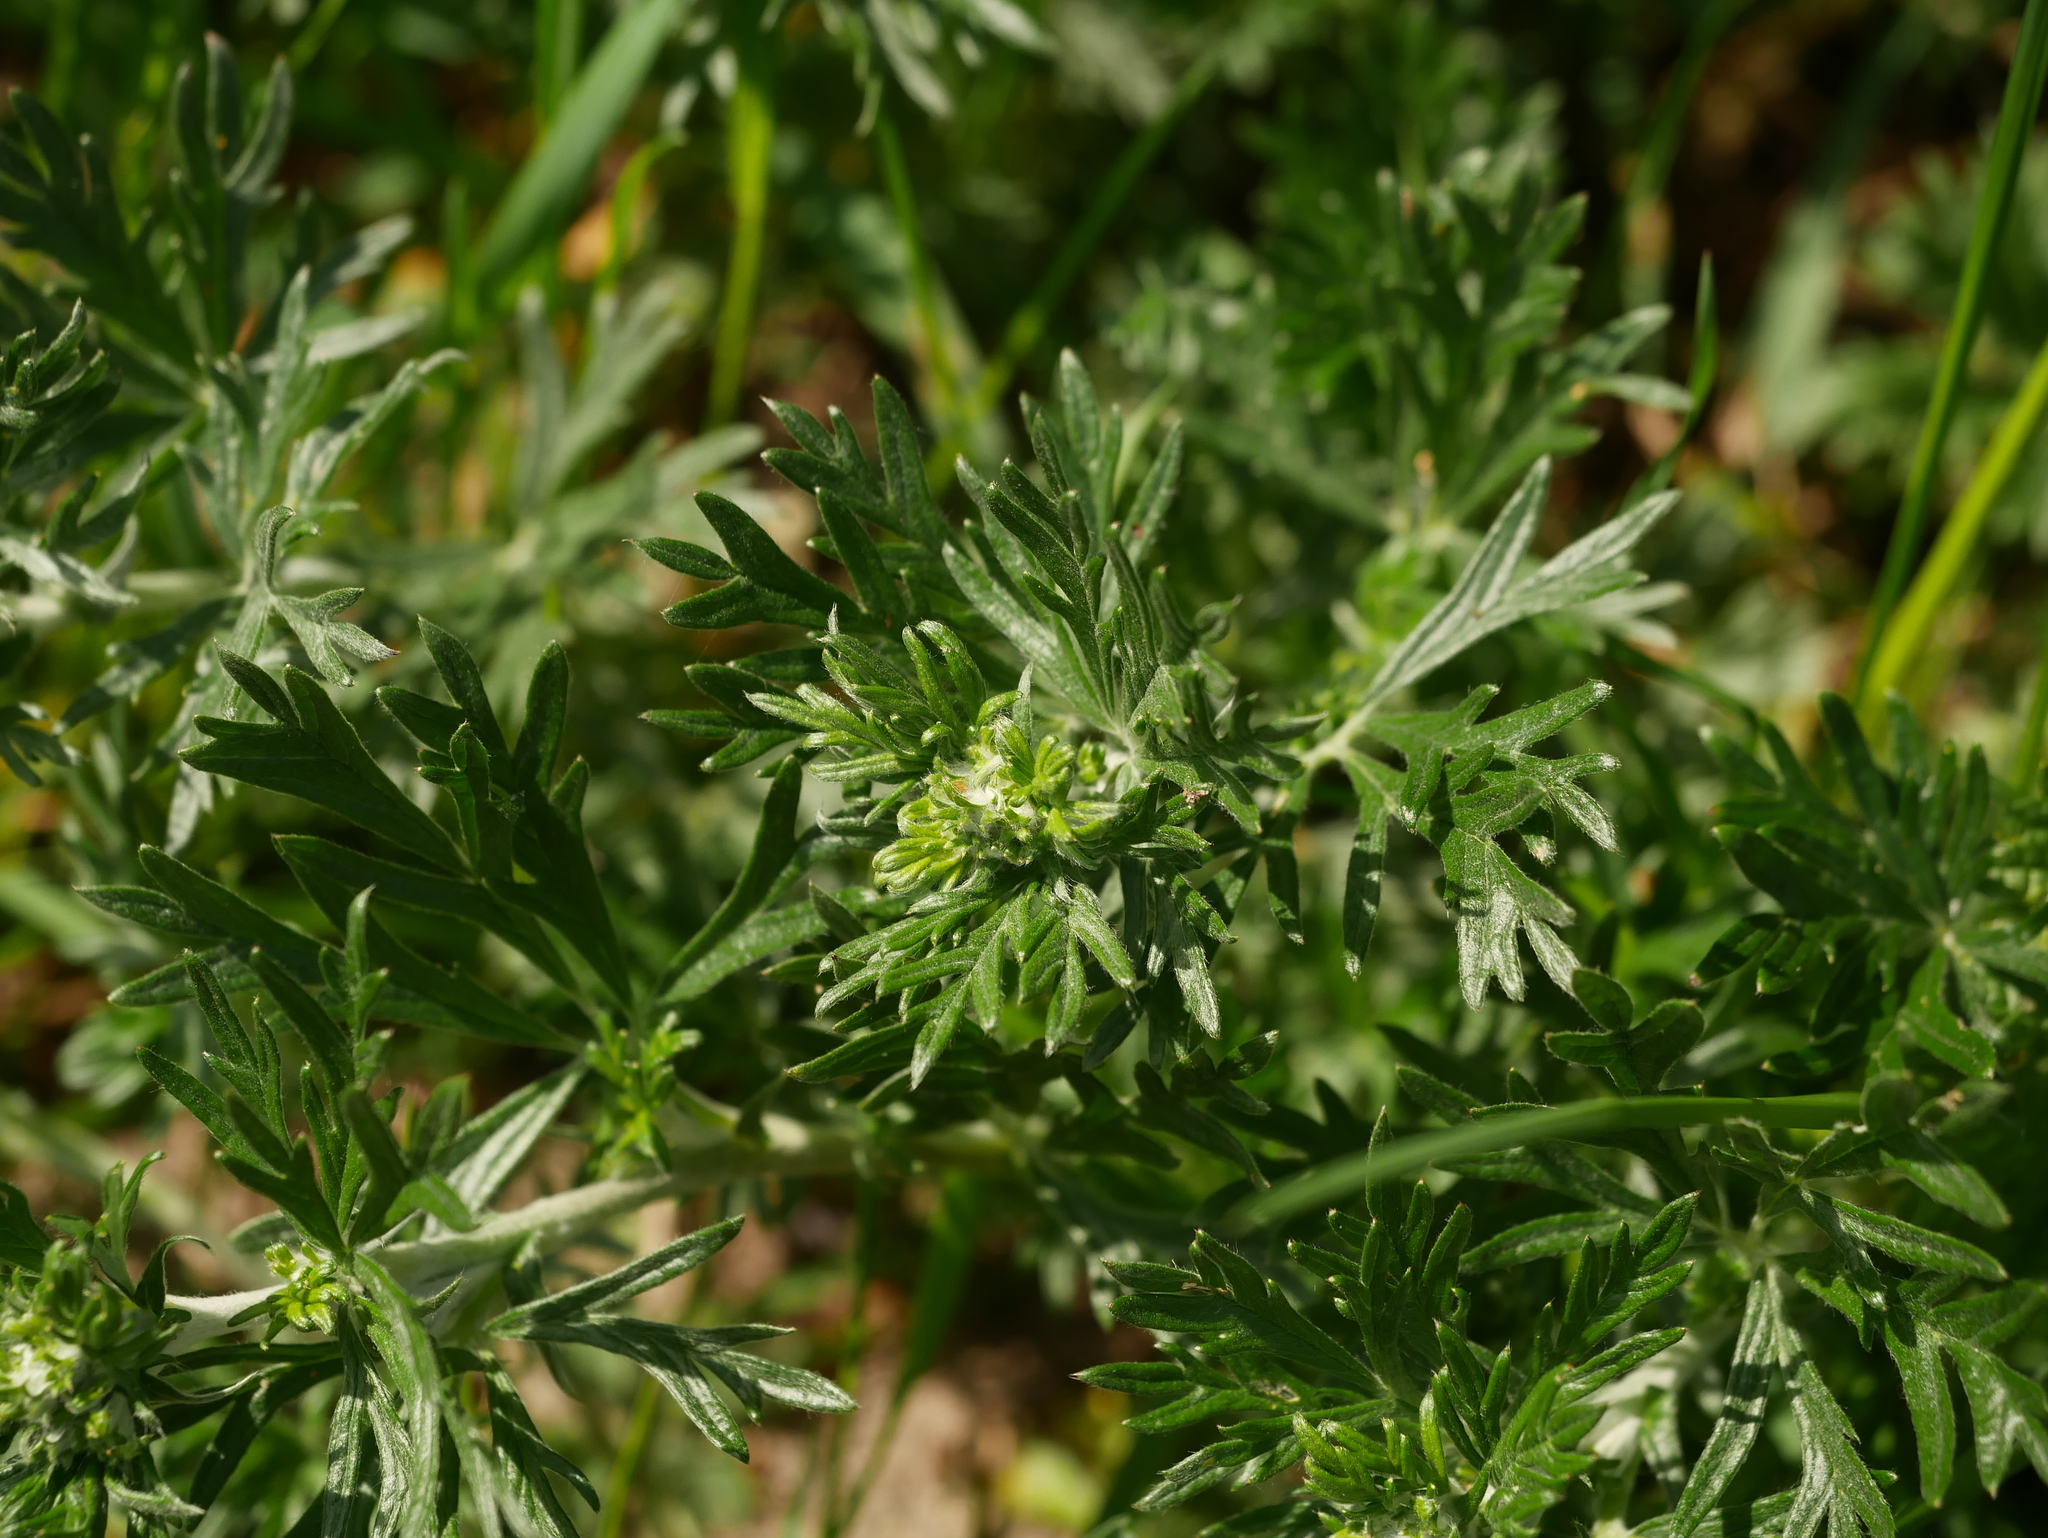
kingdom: Plantae
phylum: Tracheophyta
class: Magnoliopsida
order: Rosales
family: Rosaceae
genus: Potentilla
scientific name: Potentilla argentea
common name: Hoary cinquefoil
